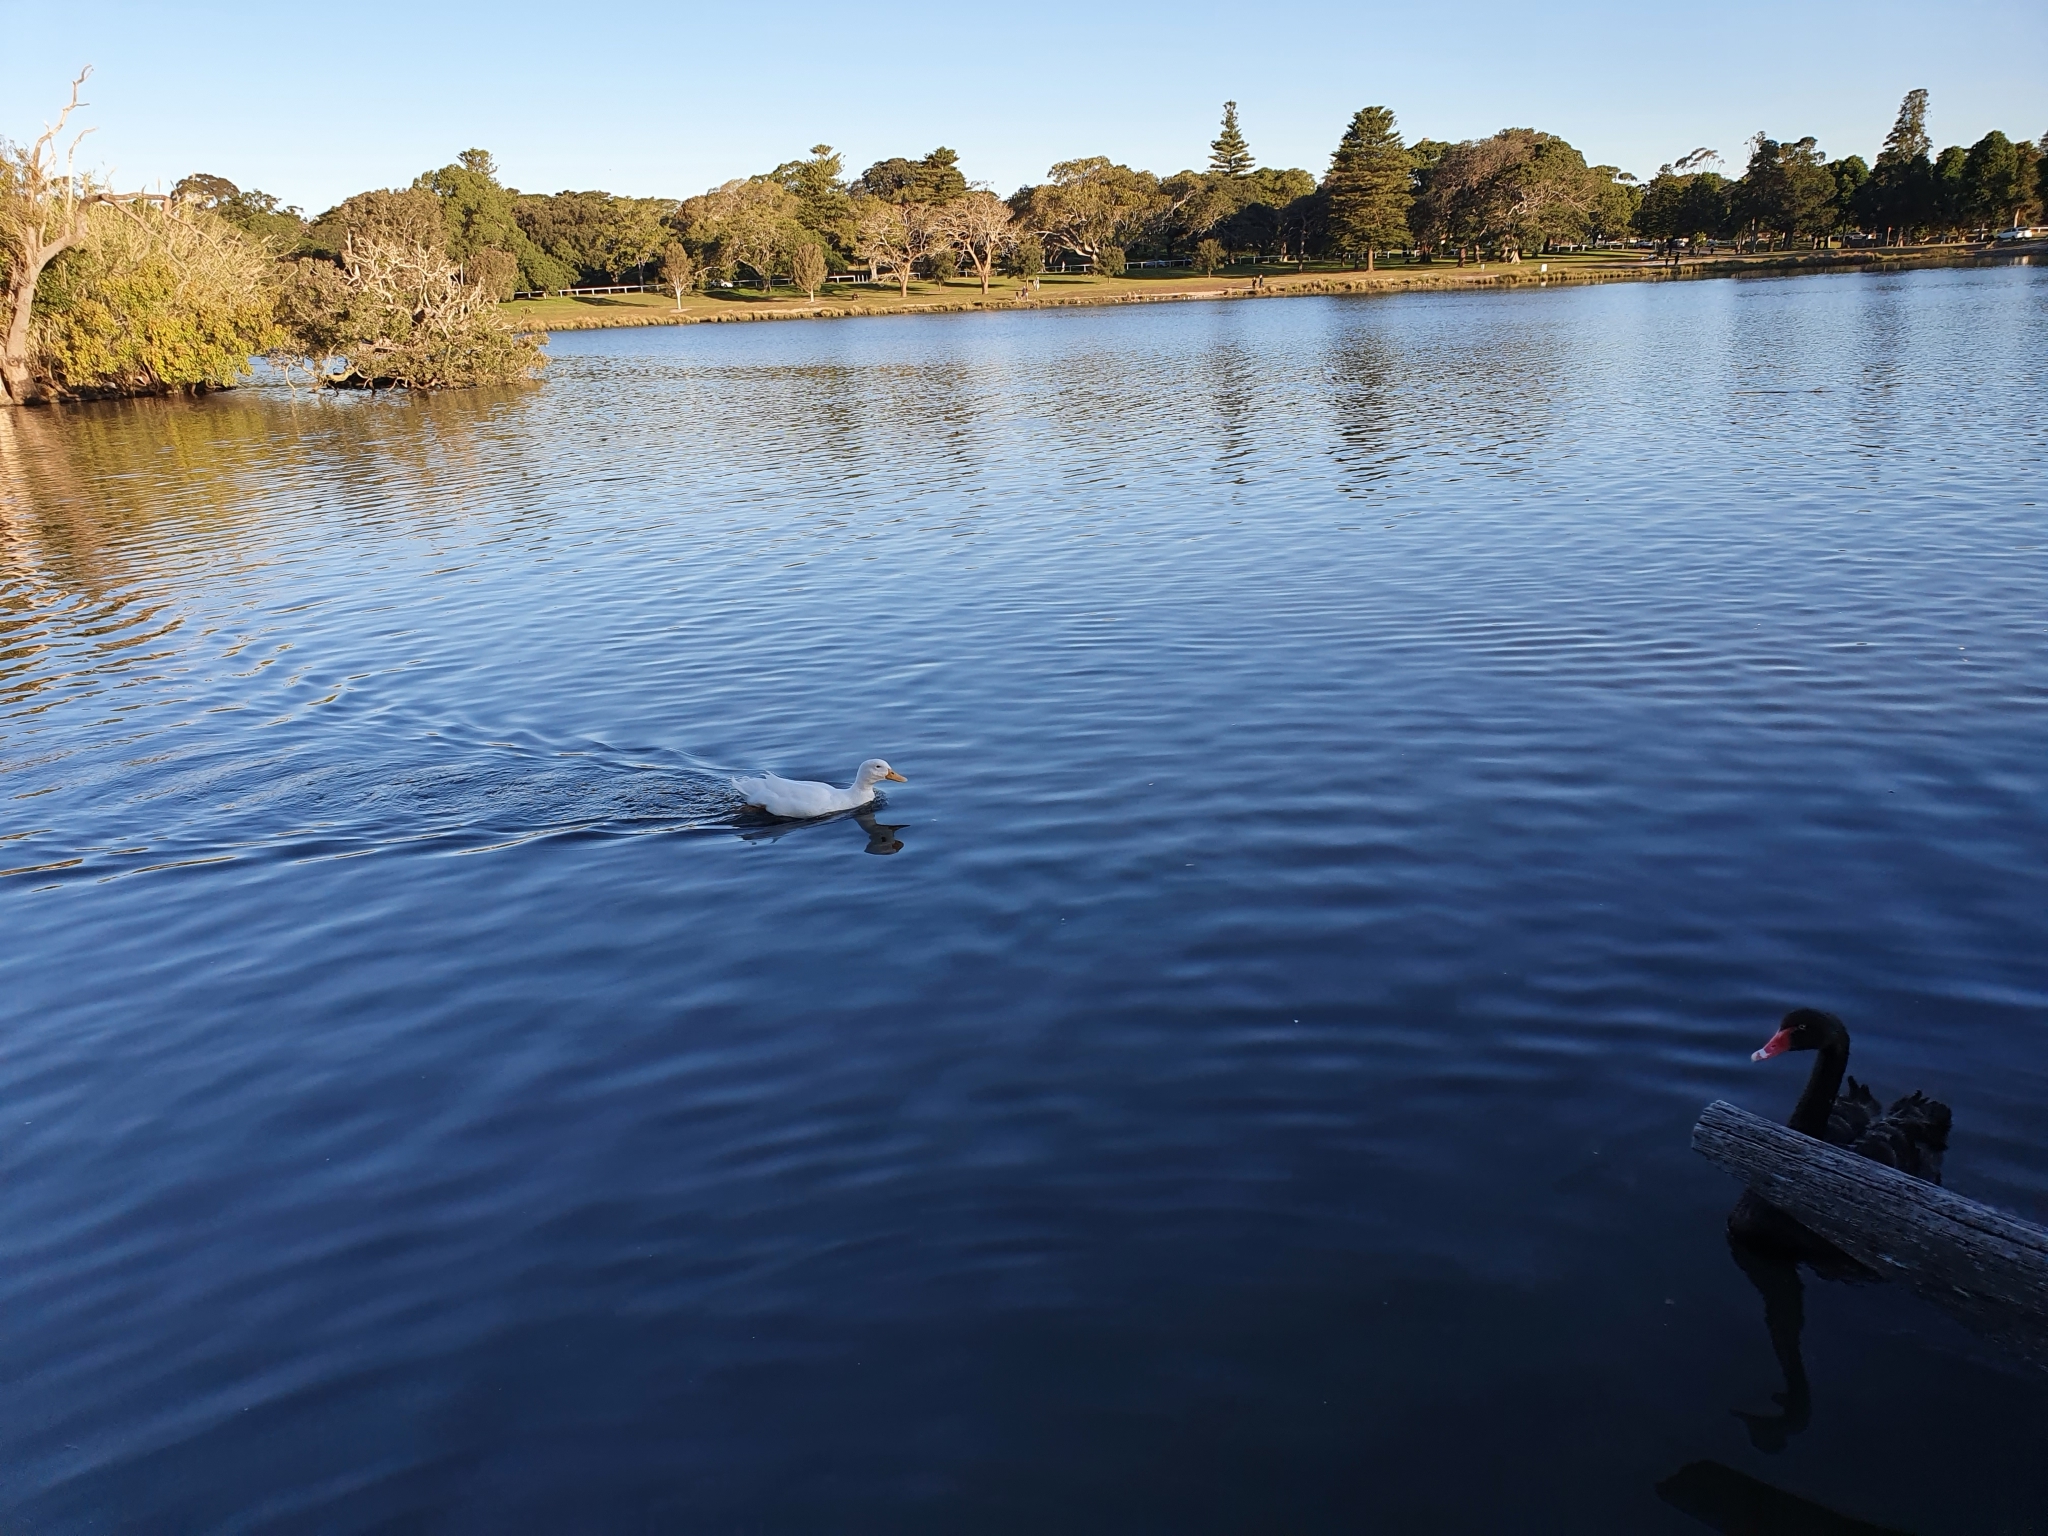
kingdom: Animalia
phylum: Chordata
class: Aves
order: Anseriformes
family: Anatidae
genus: Anas
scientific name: Anas platyrhynchos
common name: Mallard
